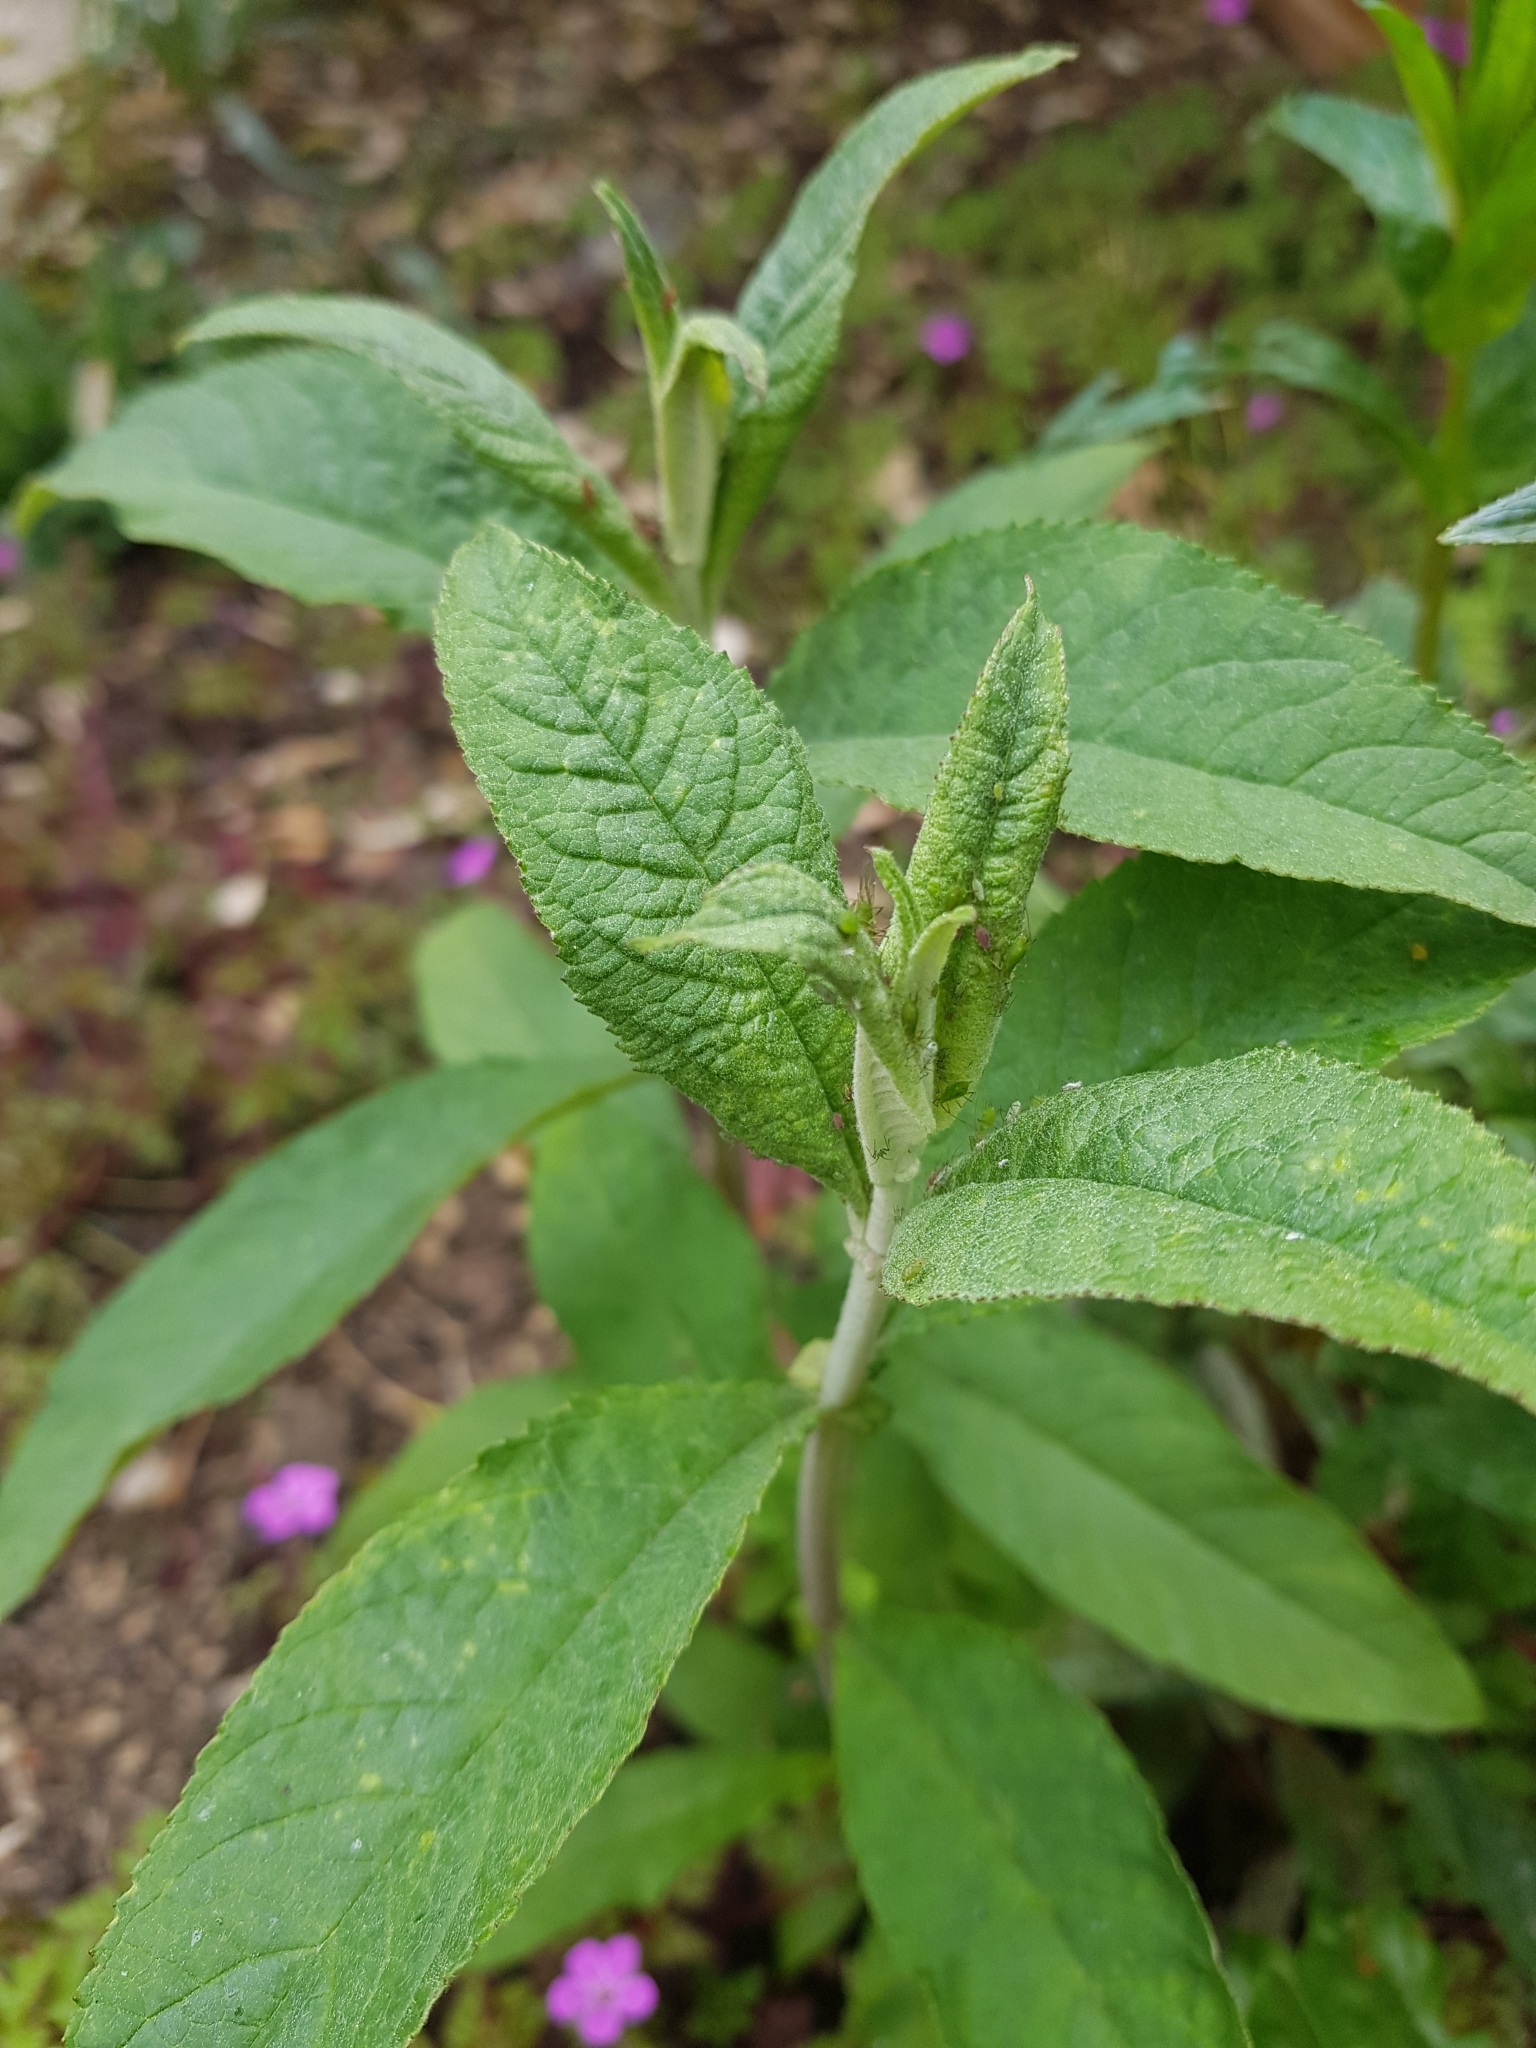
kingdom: Plantae
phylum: Tracheophyta
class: Magnoliopsida
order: Lamiales
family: Scrophulariaceae
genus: Buddleja
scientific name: Buddleja davidii
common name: Butterfly-bush
